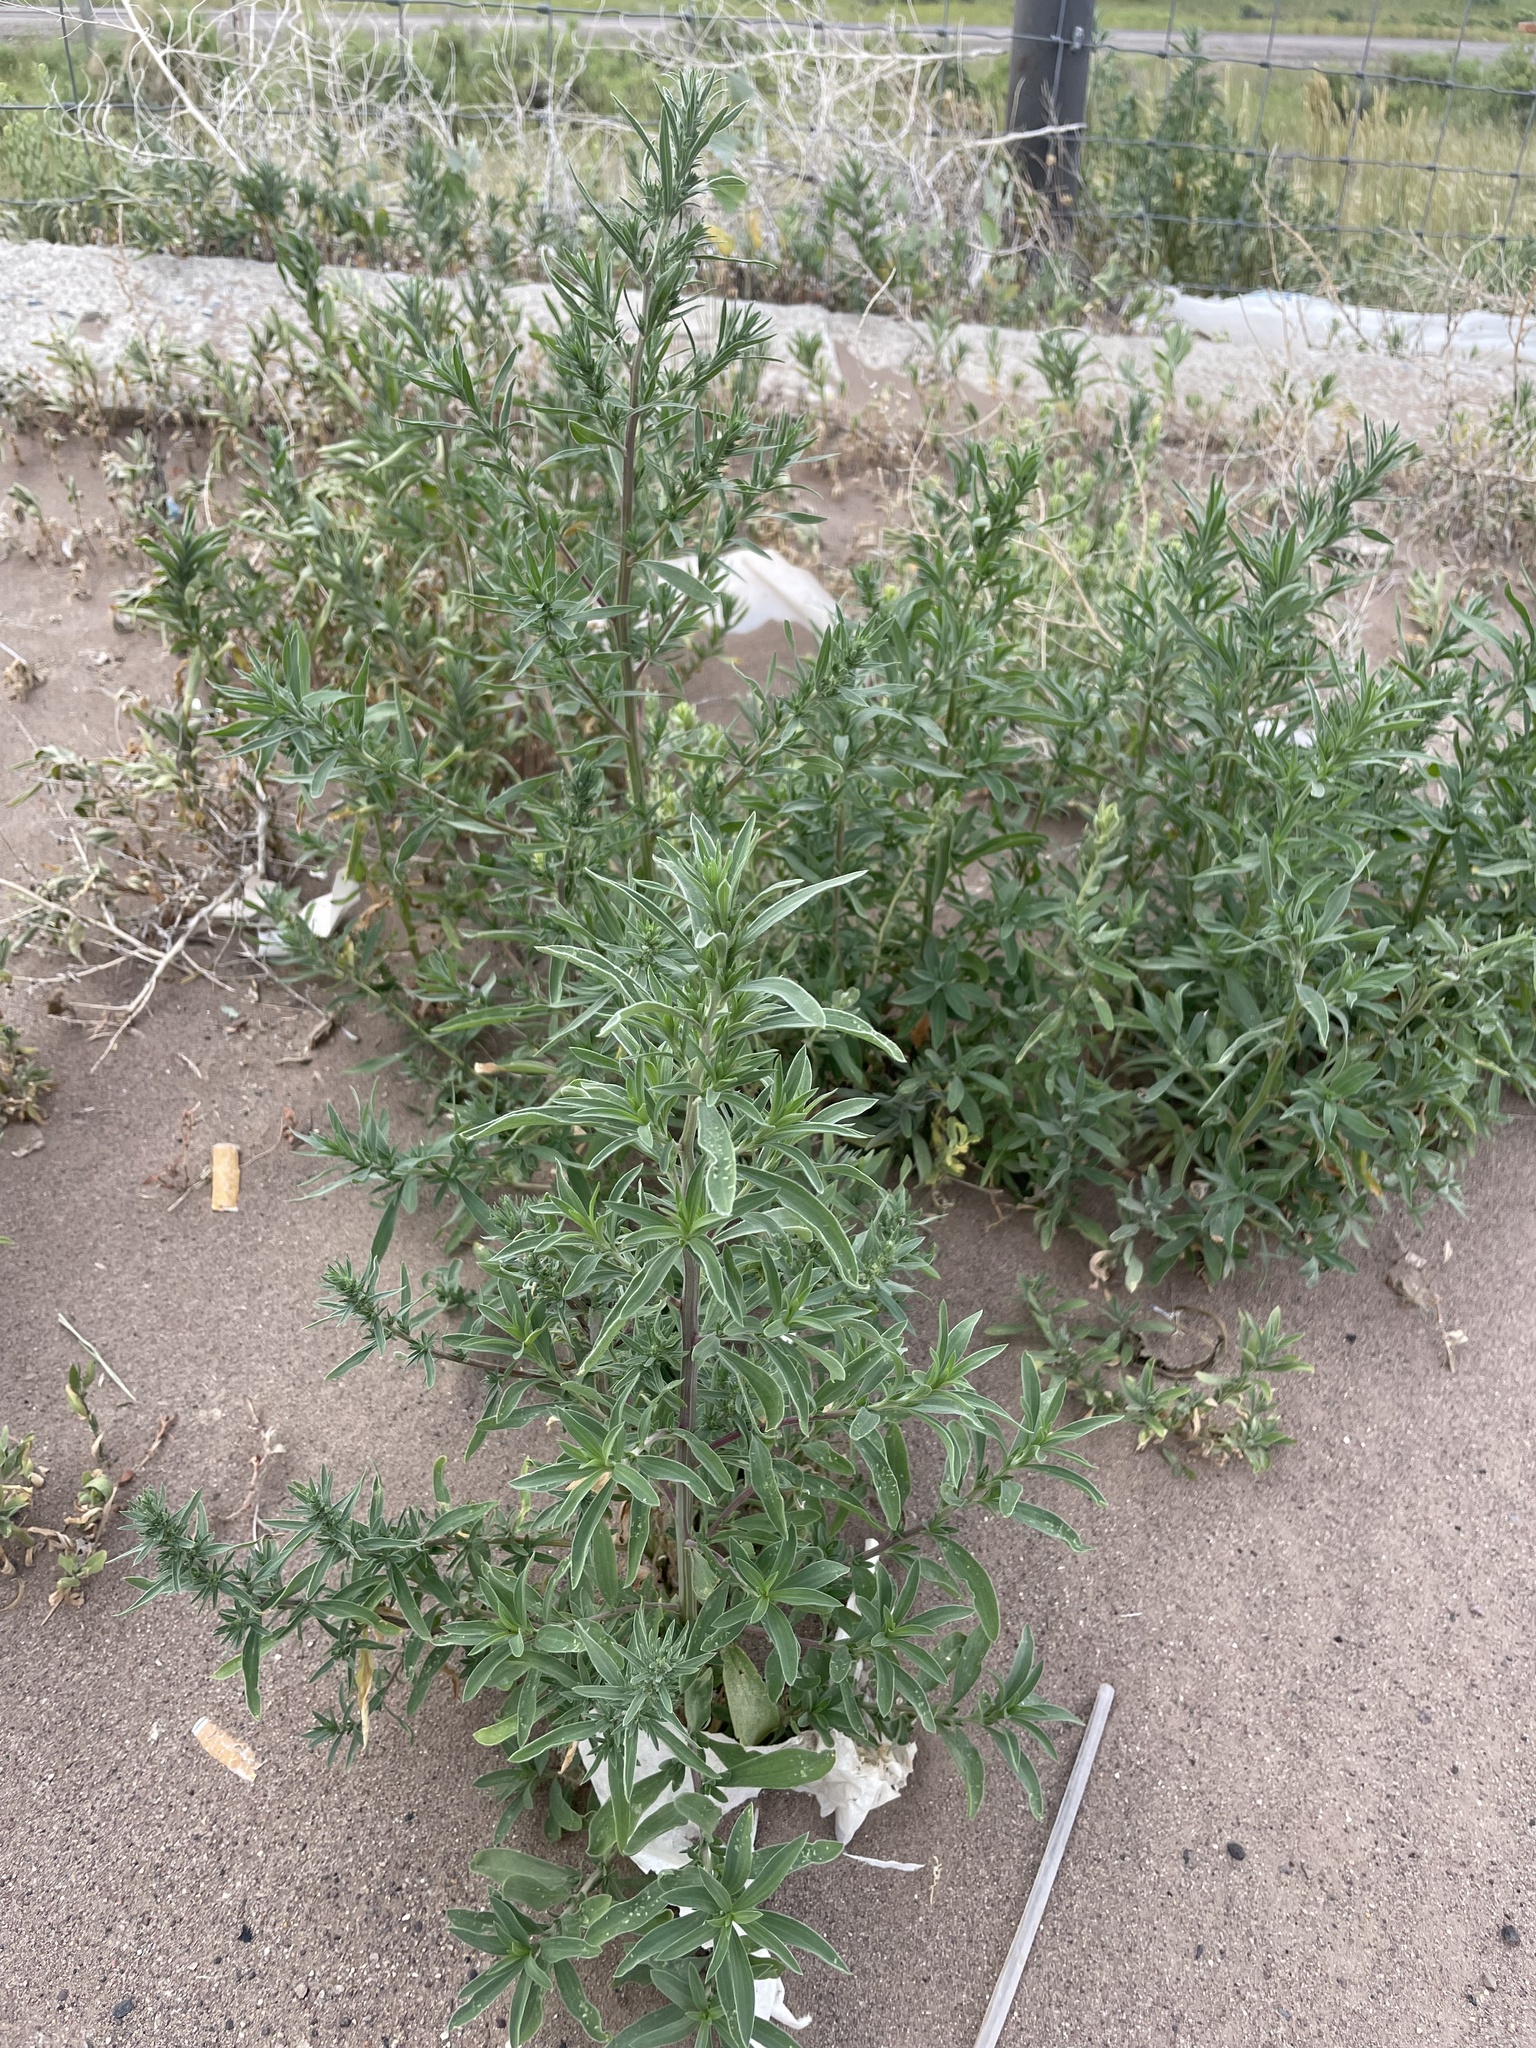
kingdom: Plantae
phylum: Tracheophyta
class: Magnoliopsida
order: Caryophyllales
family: Amaranthaceae
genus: Bassia
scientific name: Bassia scoparia
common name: Belvedere
